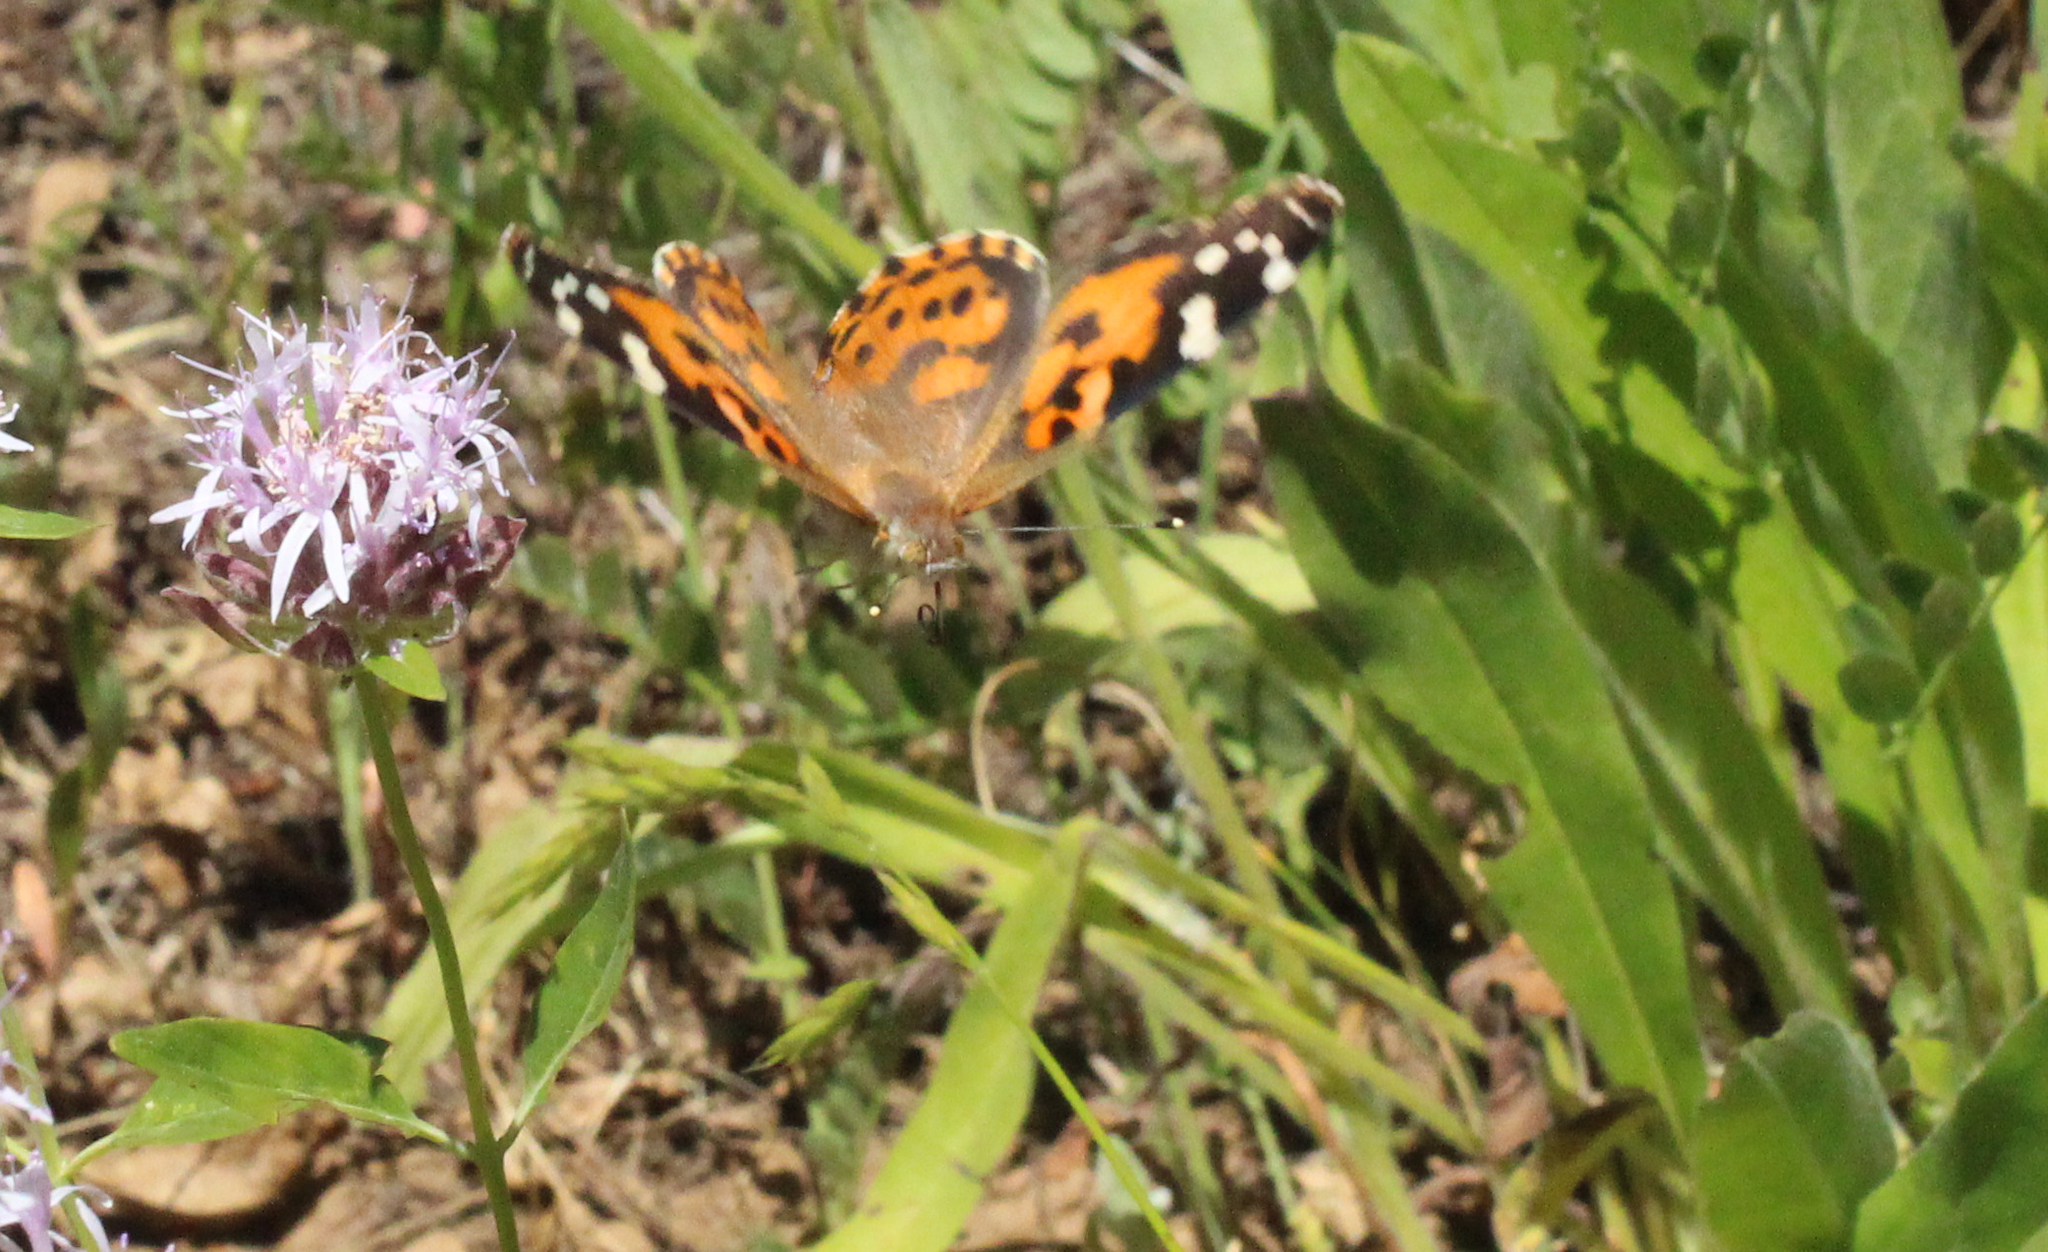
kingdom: Animalia
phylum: Arthropoda
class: Insecta
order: Lepidoptera
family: Nymphalidae
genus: Vanessa
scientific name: Vanessa cardui
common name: Painted lady
